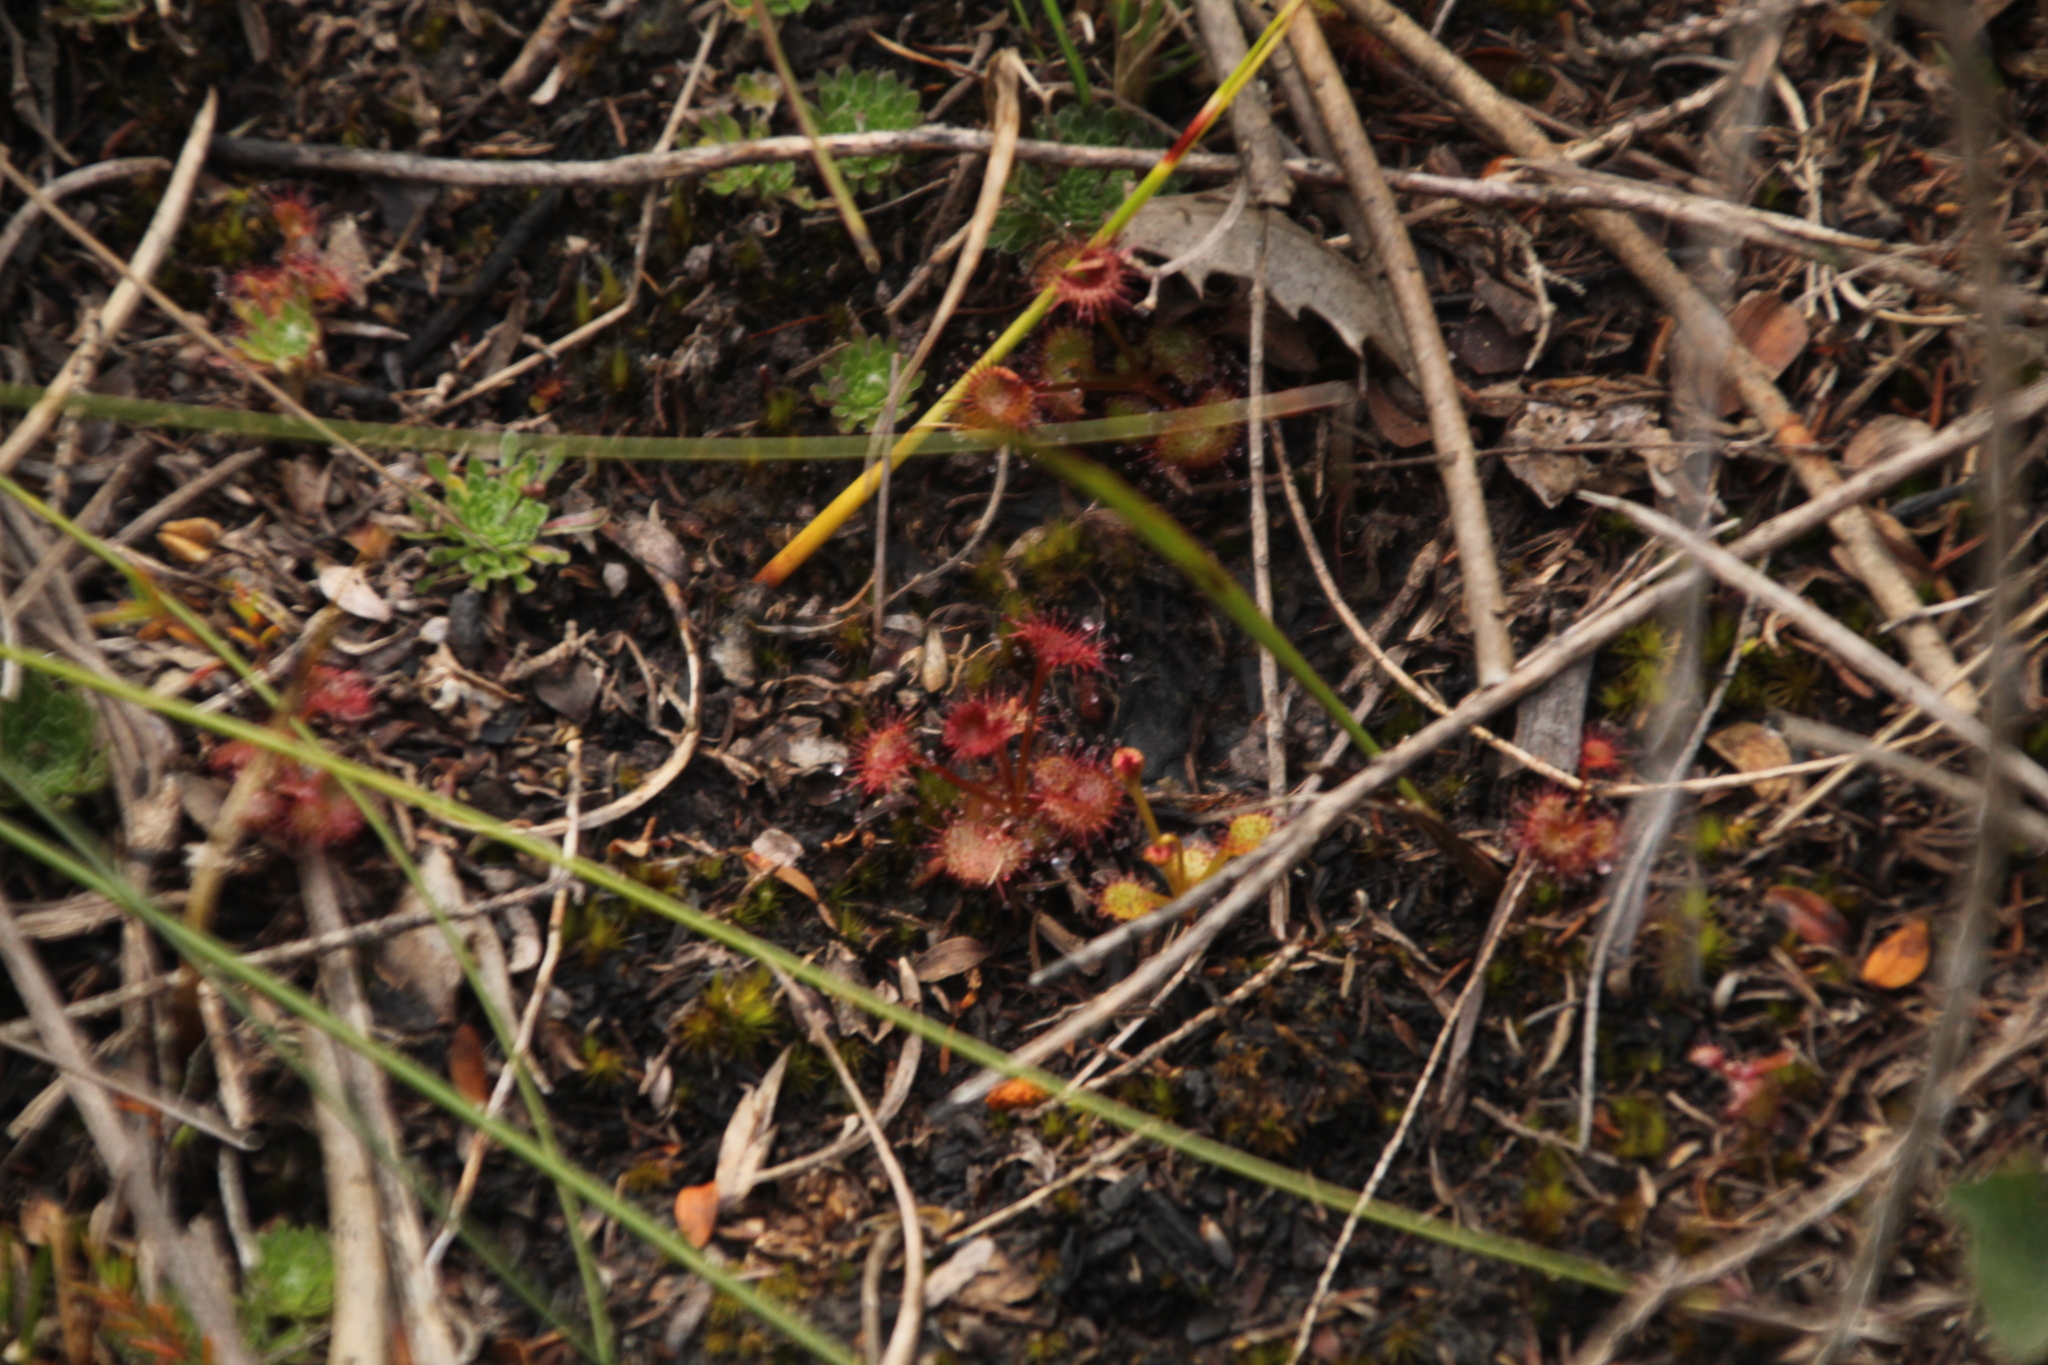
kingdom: Plantae
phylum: Tracheophyta
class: Magnoliopsida
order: Caryophyllales
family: Droseraceae
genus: Drosera
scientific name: Drosera monticola
